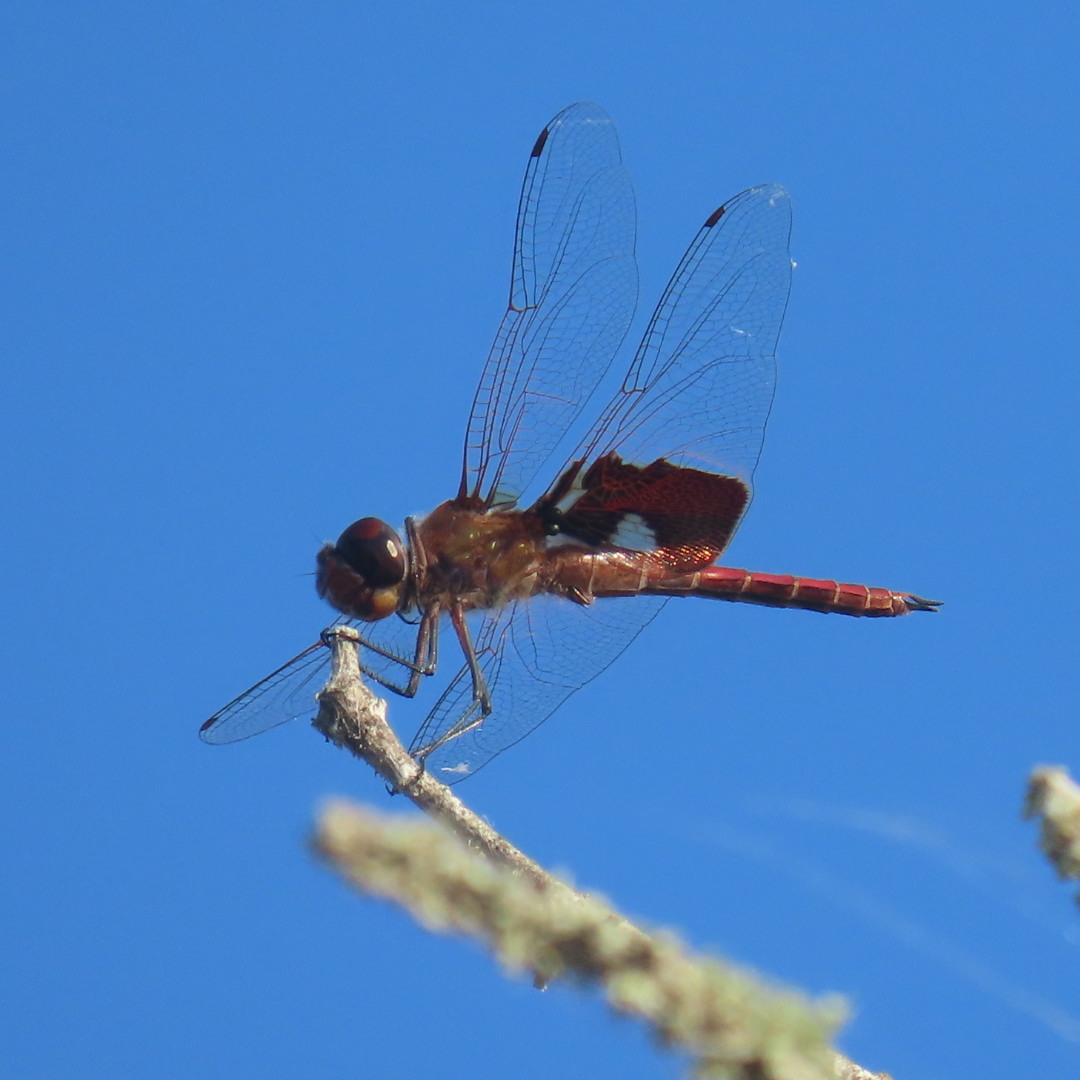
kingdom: Animalia
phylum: Arthropoda
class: Insecta
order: Odonata
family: Libellulidae
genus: Tramea
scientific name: Tramea onusta
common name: Red saddlebags
